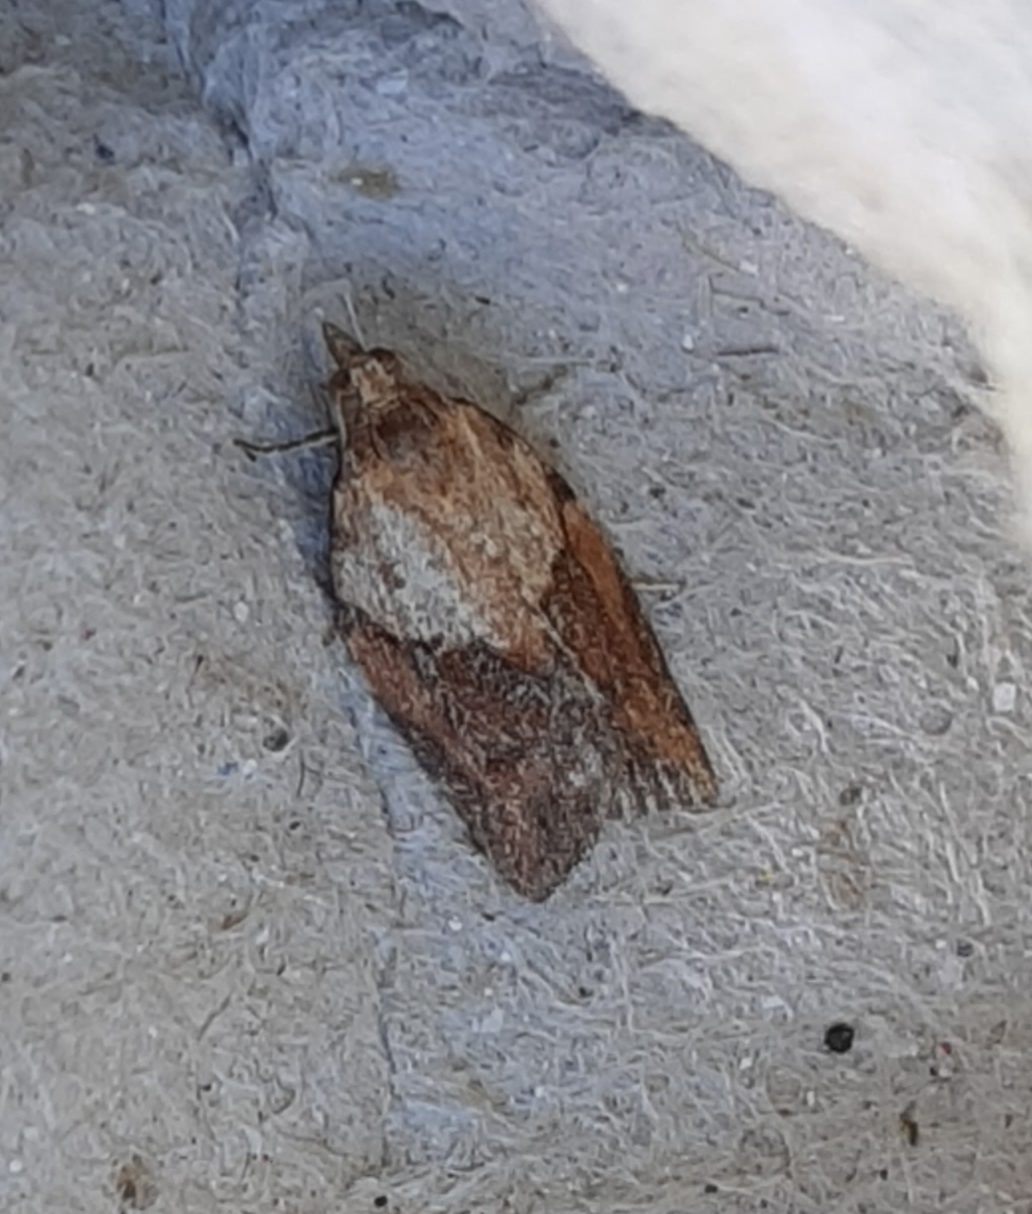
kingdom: Animalia
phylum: Arthropoda
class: Insecta
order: Lepidoptera
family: Tortricidae
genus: Epiphyas
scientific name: Epiphyas postvittana
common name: Light brown apple moth
